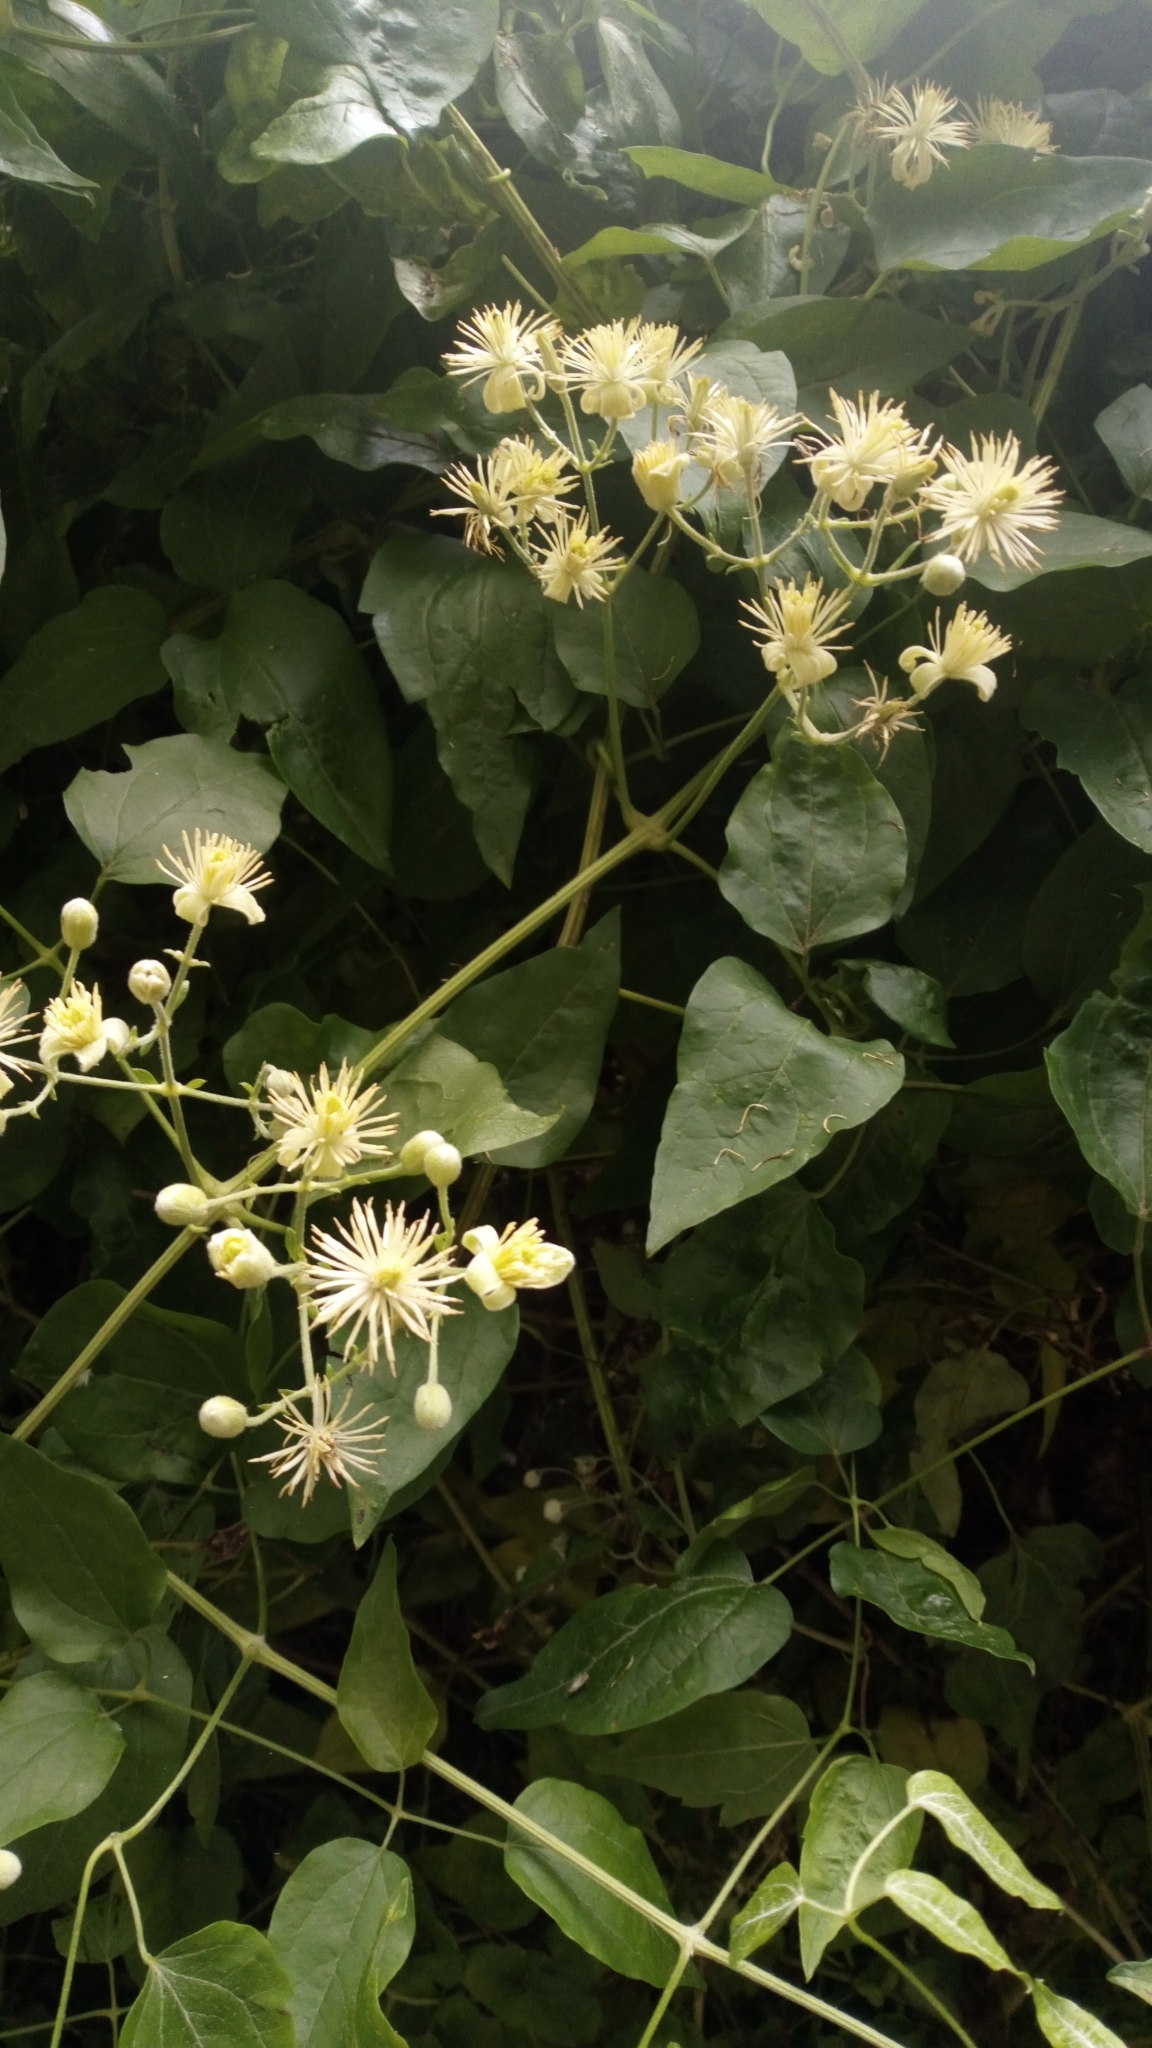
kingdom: Plantae
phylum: Tracheophyta
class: Magnoliopsida
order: Ranunculales
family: Ranunculaceae
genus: Clematis
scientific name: Clematis vitalba
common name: Evergreen clematis
